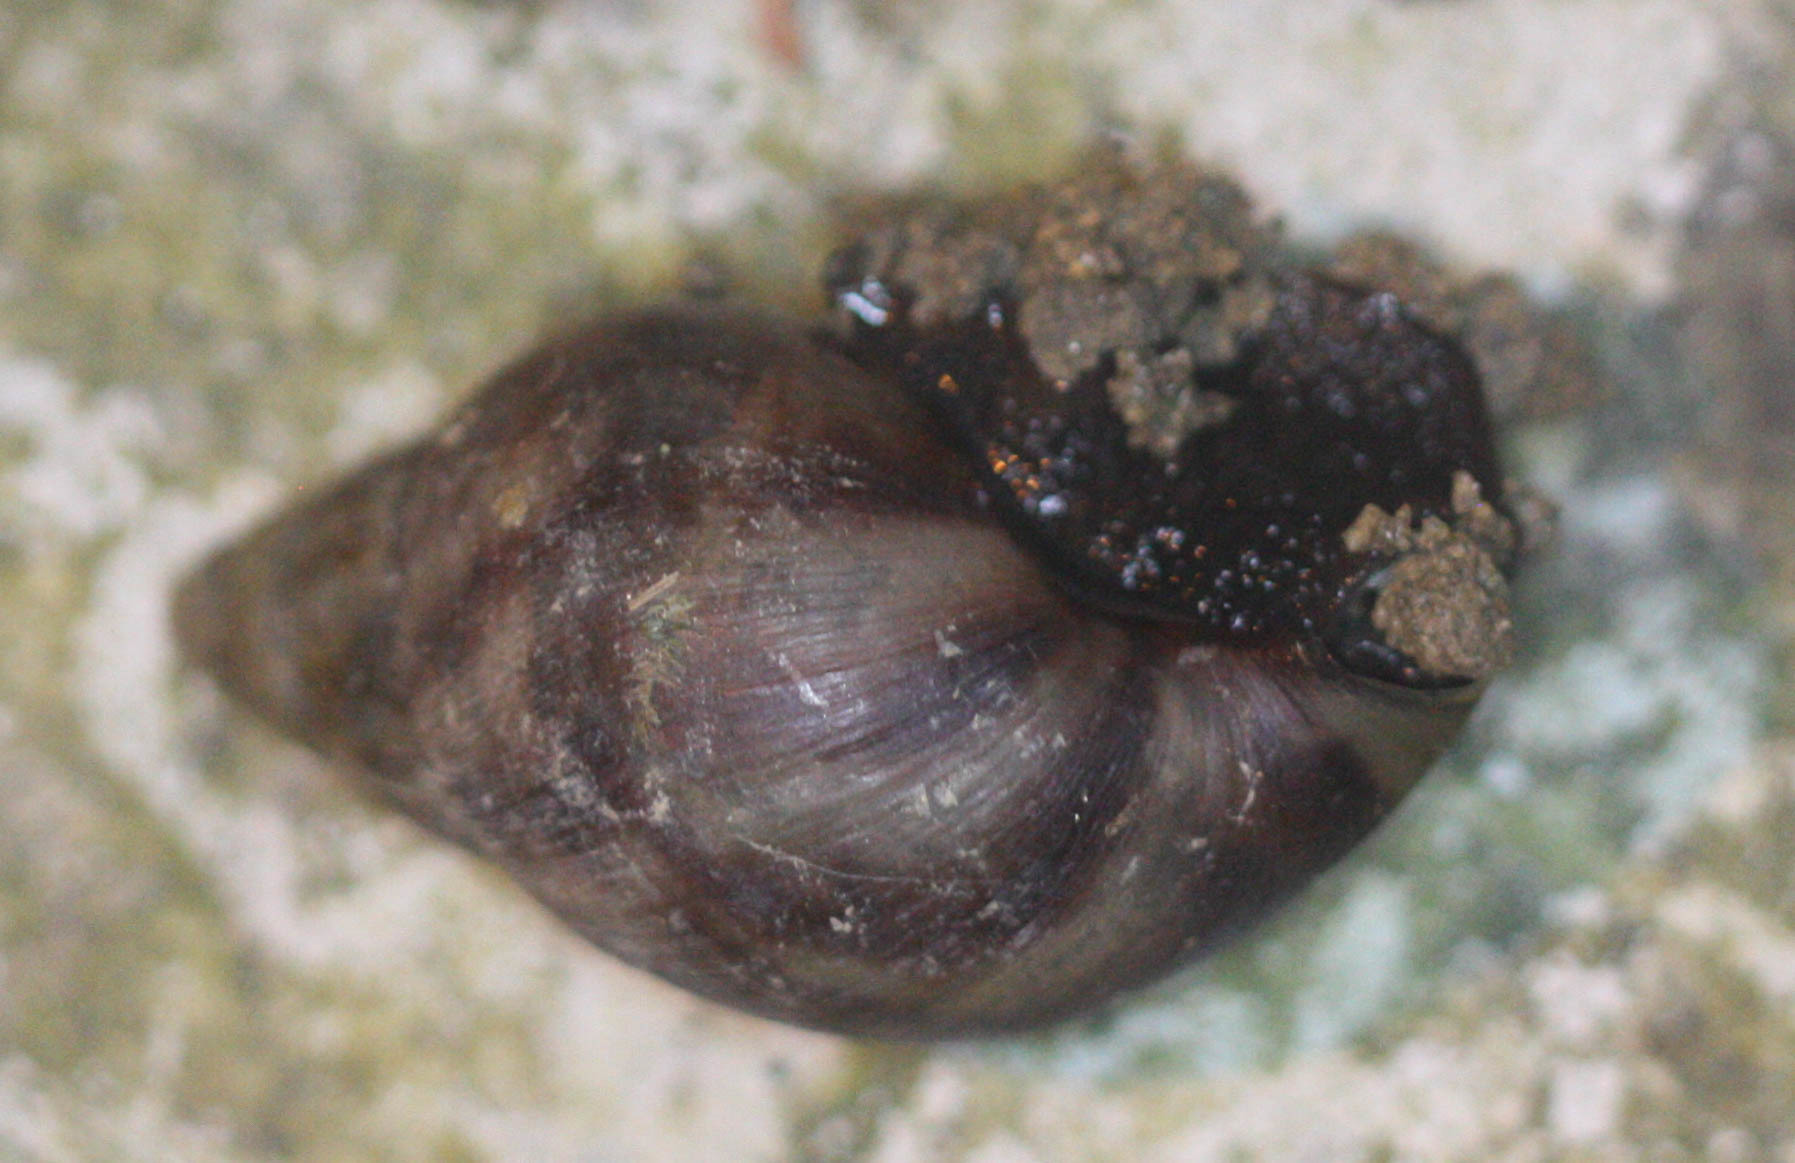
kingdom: Animalia
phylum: Mollusca
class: Gastropoda
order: Stylommatophora
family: Achatinidae
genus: Lissachatina
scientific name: Lissachatina fulica
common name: Giant african snail
